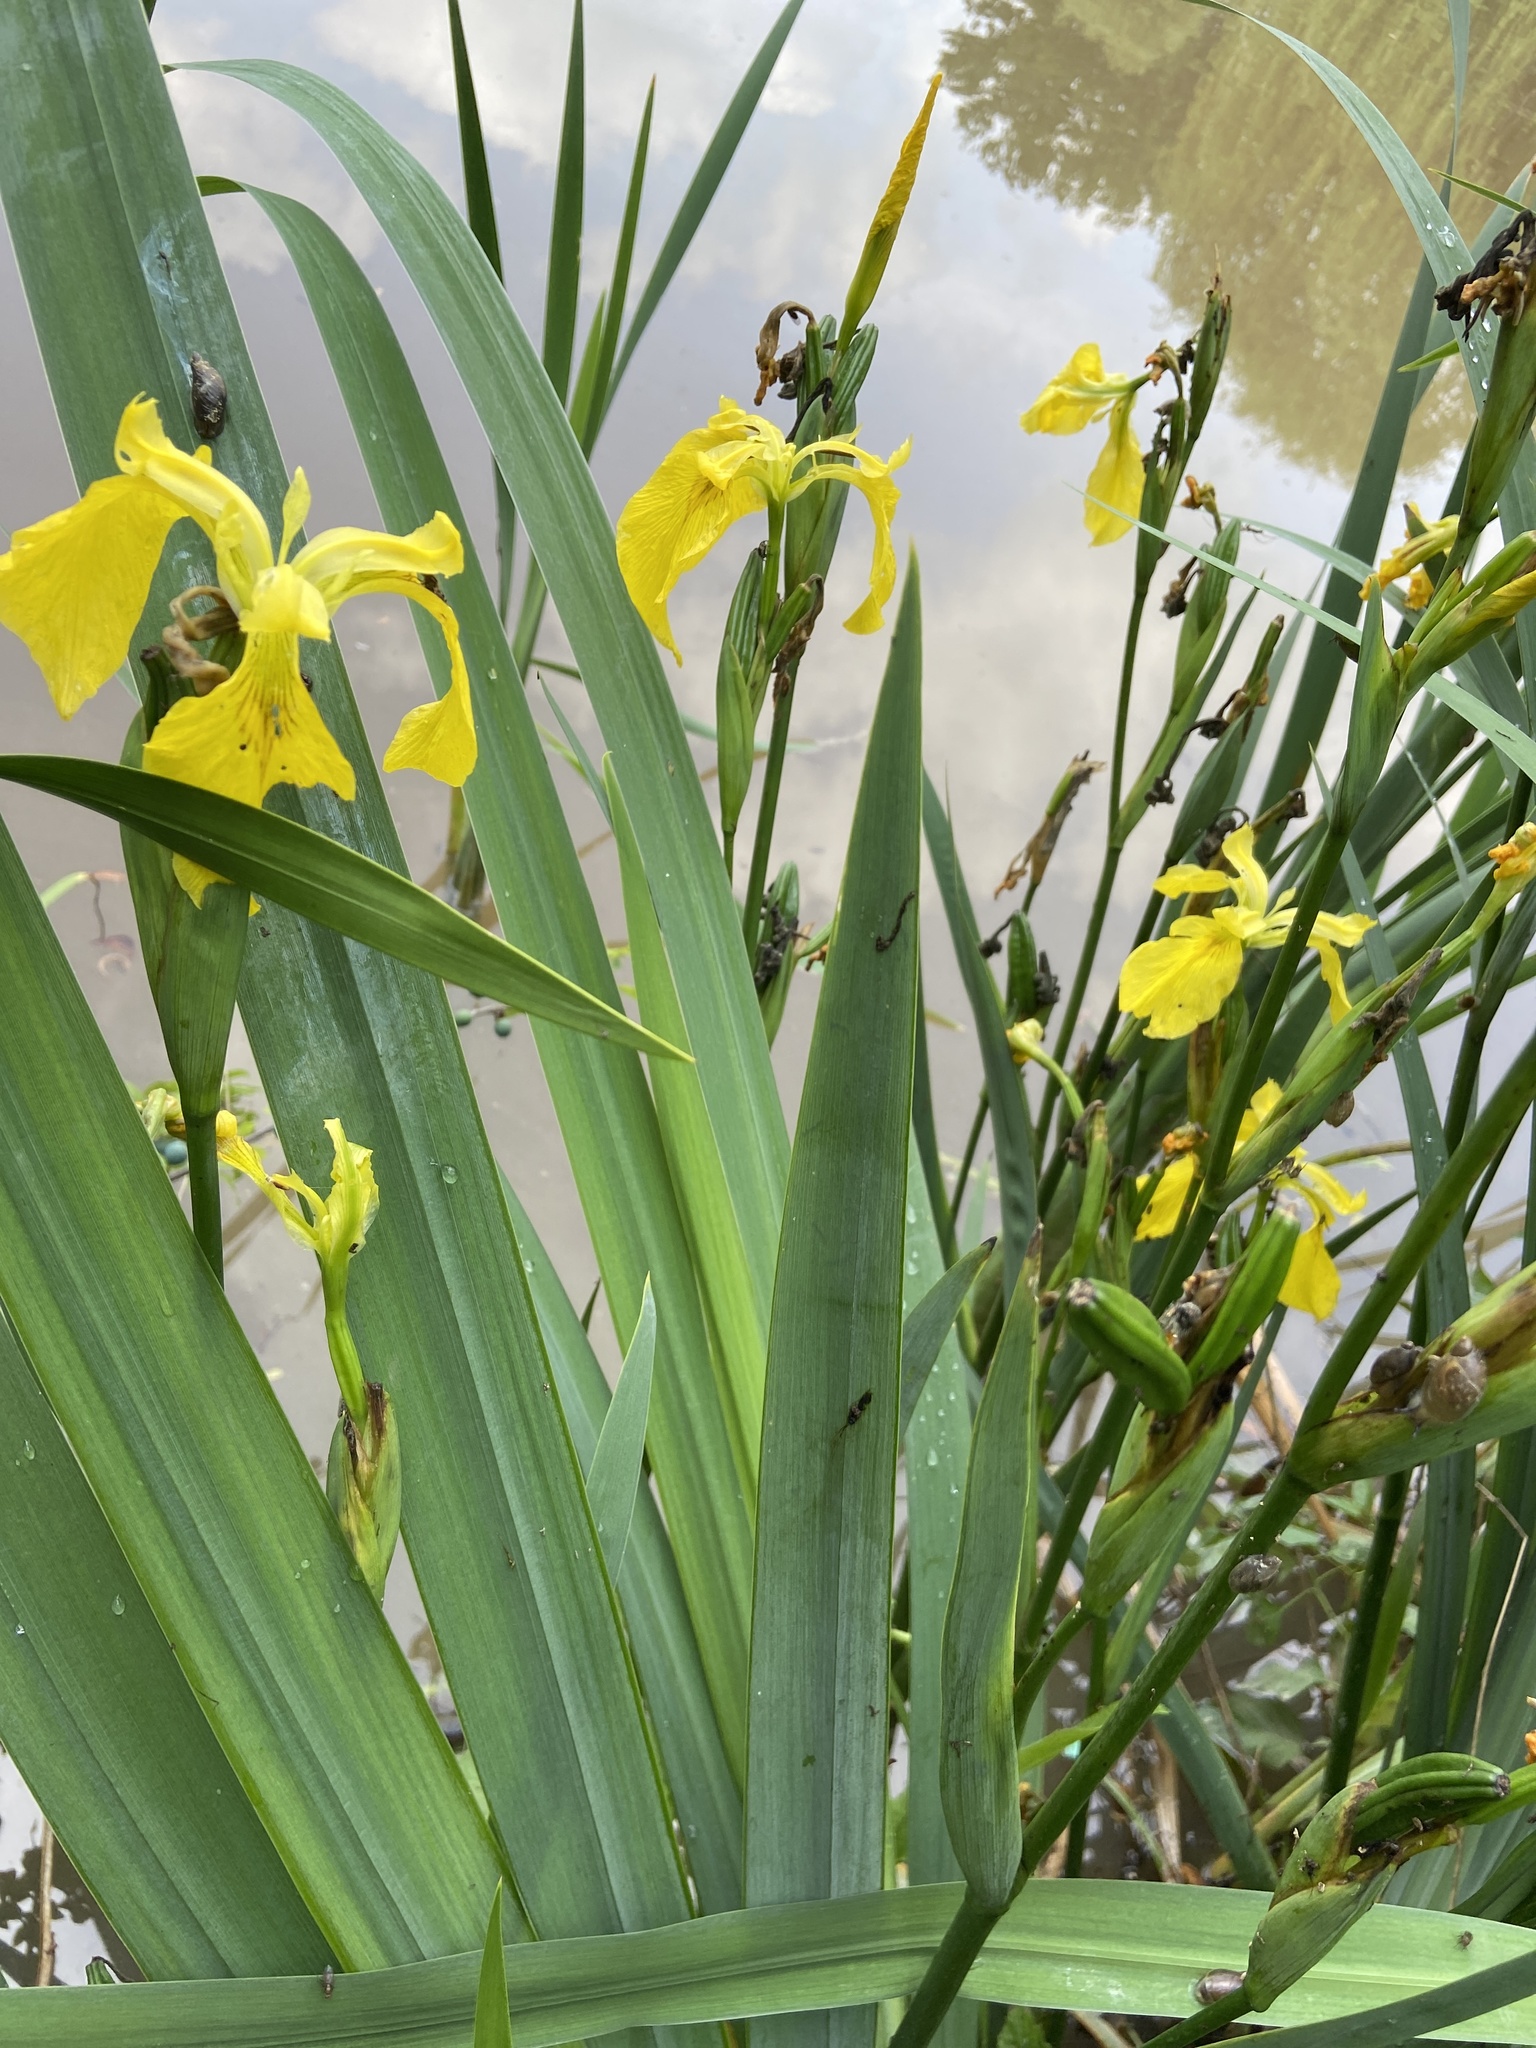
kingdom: Plantae
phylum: Tracheophyta
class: Liliopsida
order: Asparagales
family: Iridaceae
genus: Iris
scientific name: Iris pseudacorus
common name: Yellow flag
